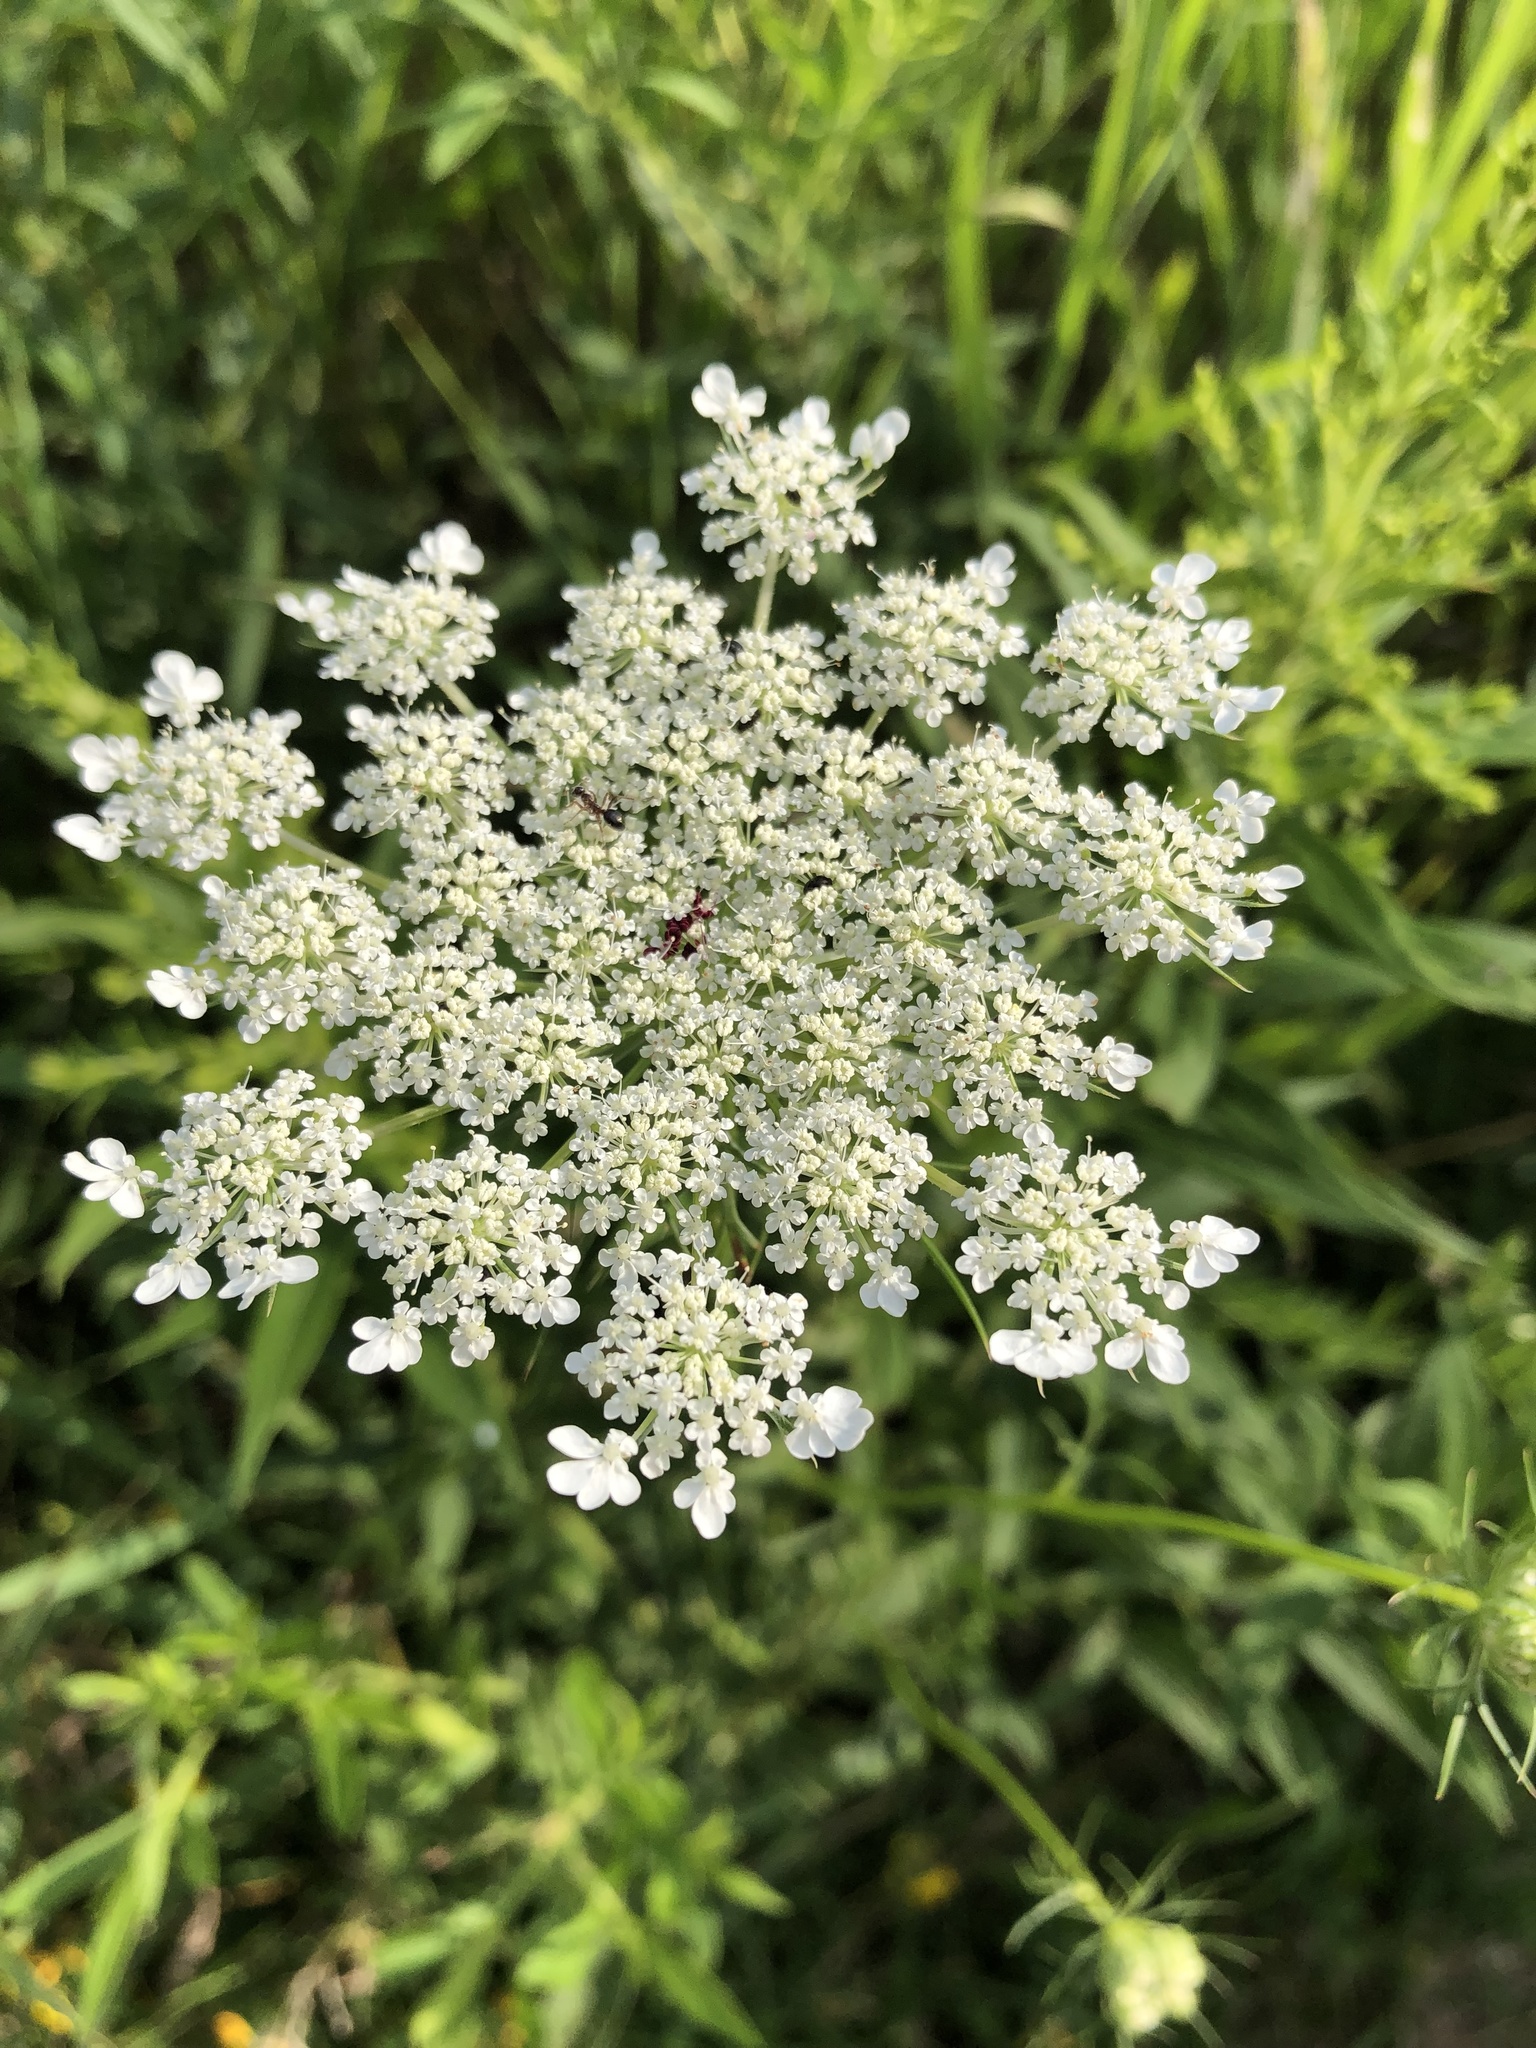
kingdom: Plantae
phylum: Tracheophyta
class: Magnoliopsida
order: Apiales
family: Apiaceae
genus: Daucus
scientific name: Daucus carota
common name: Wild carrot
